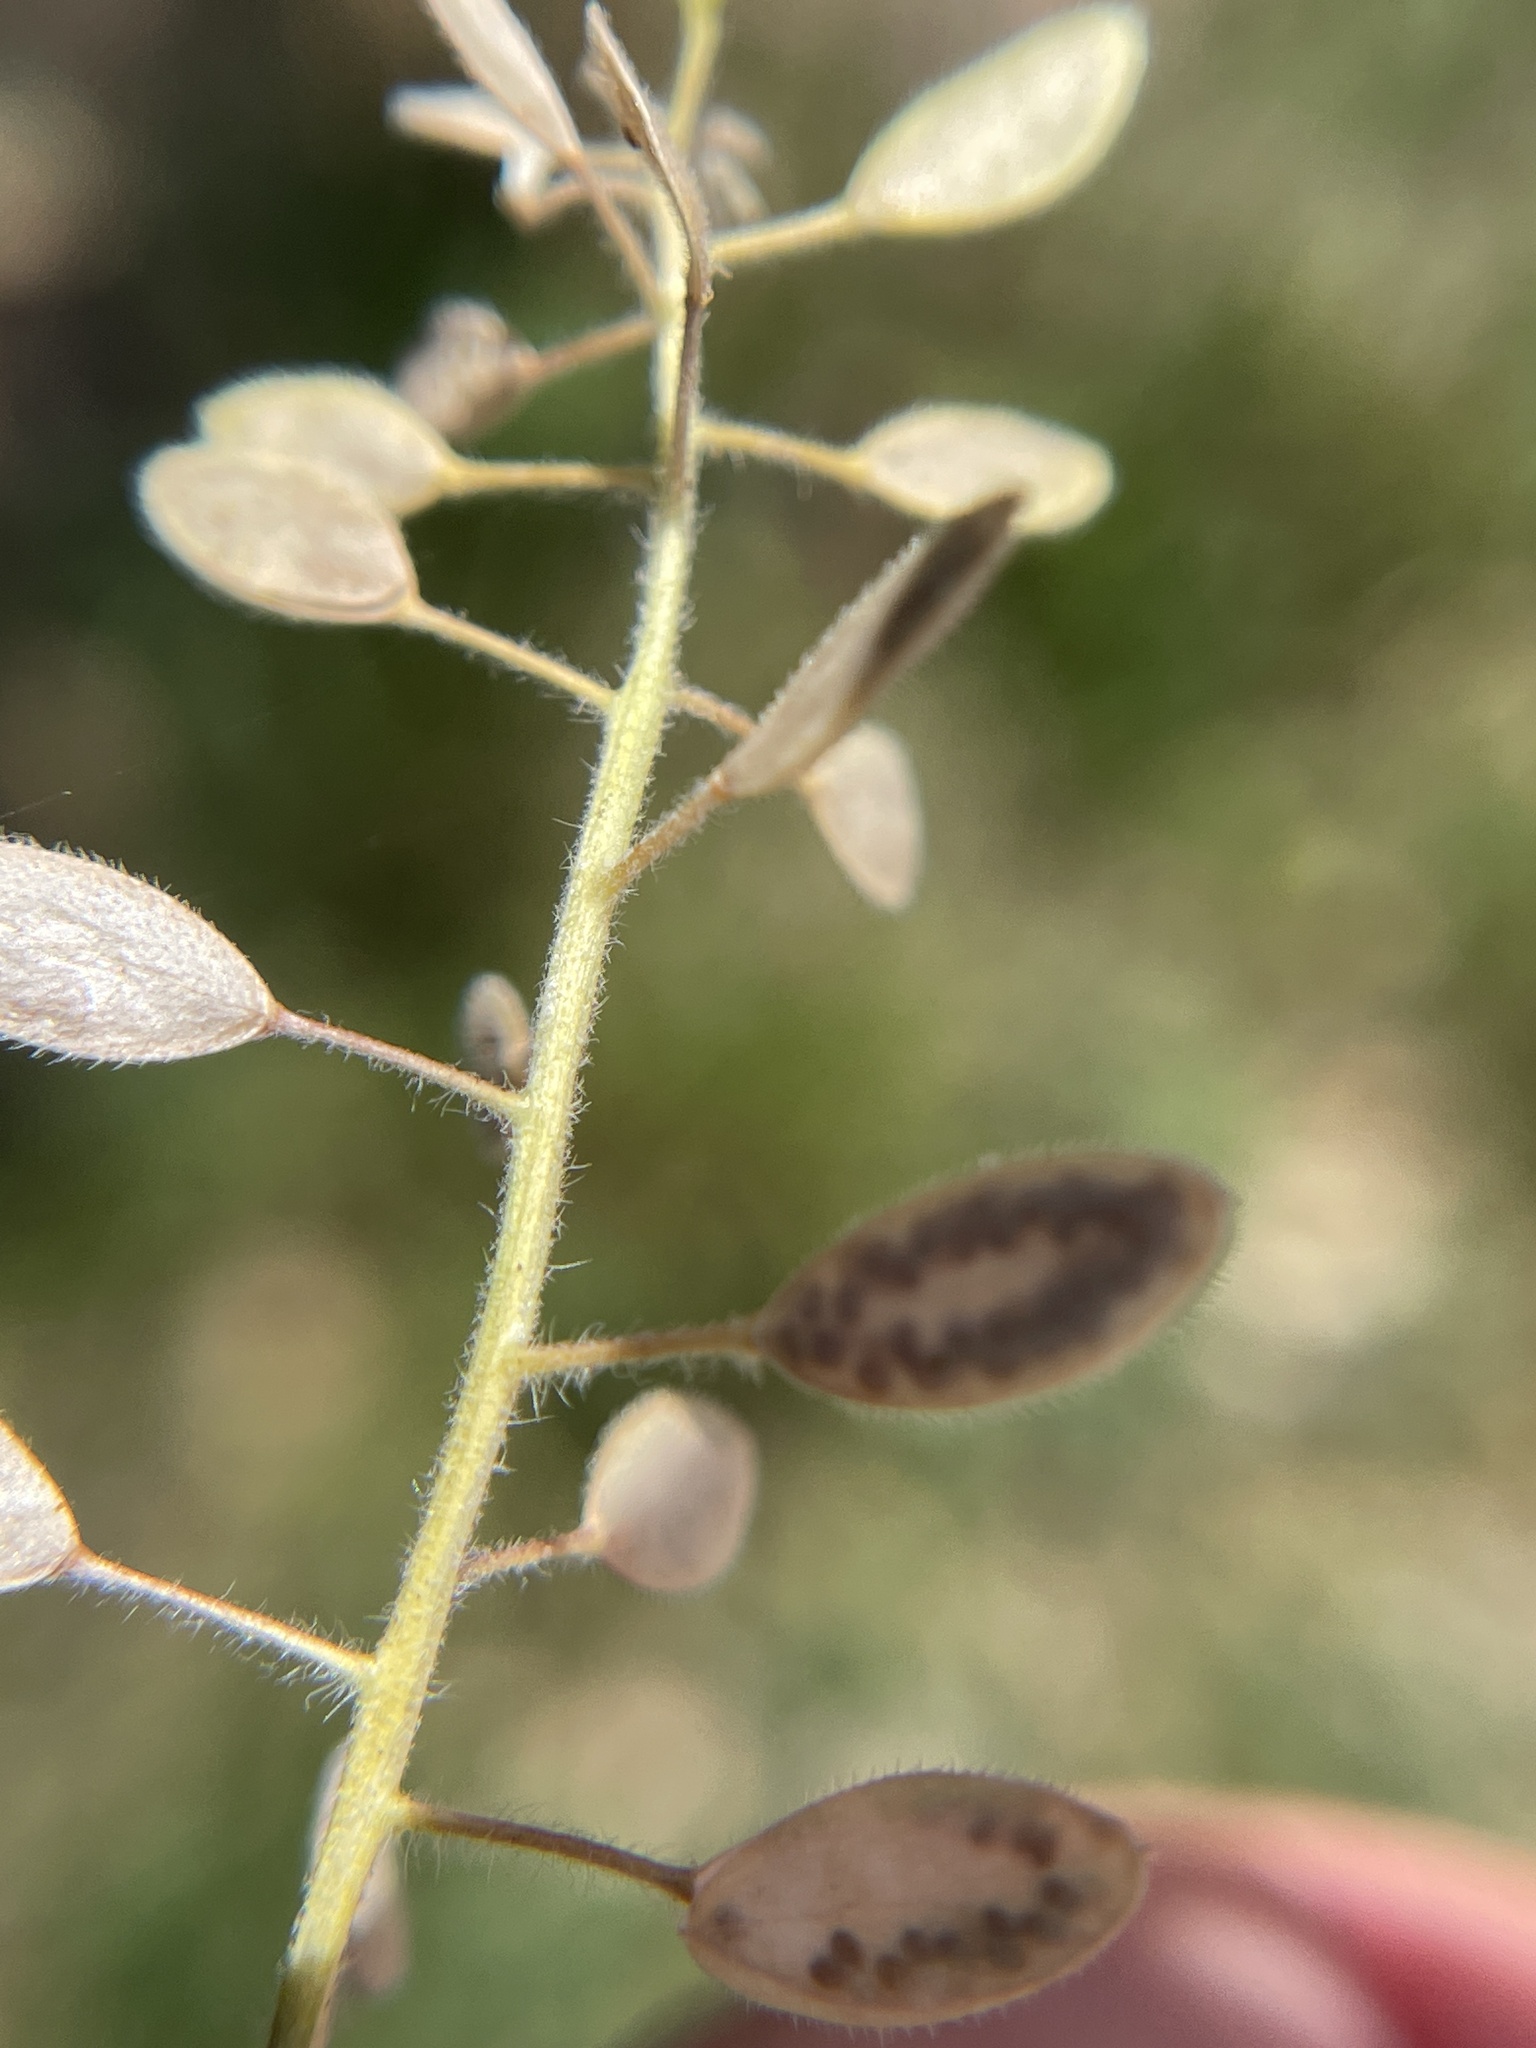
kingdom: Plantae
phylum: Tracheophyta
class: Magnoliopsida
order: Brassicales
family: Brassicaceae
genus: Tomostima
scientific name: Tomostima platycarpa
